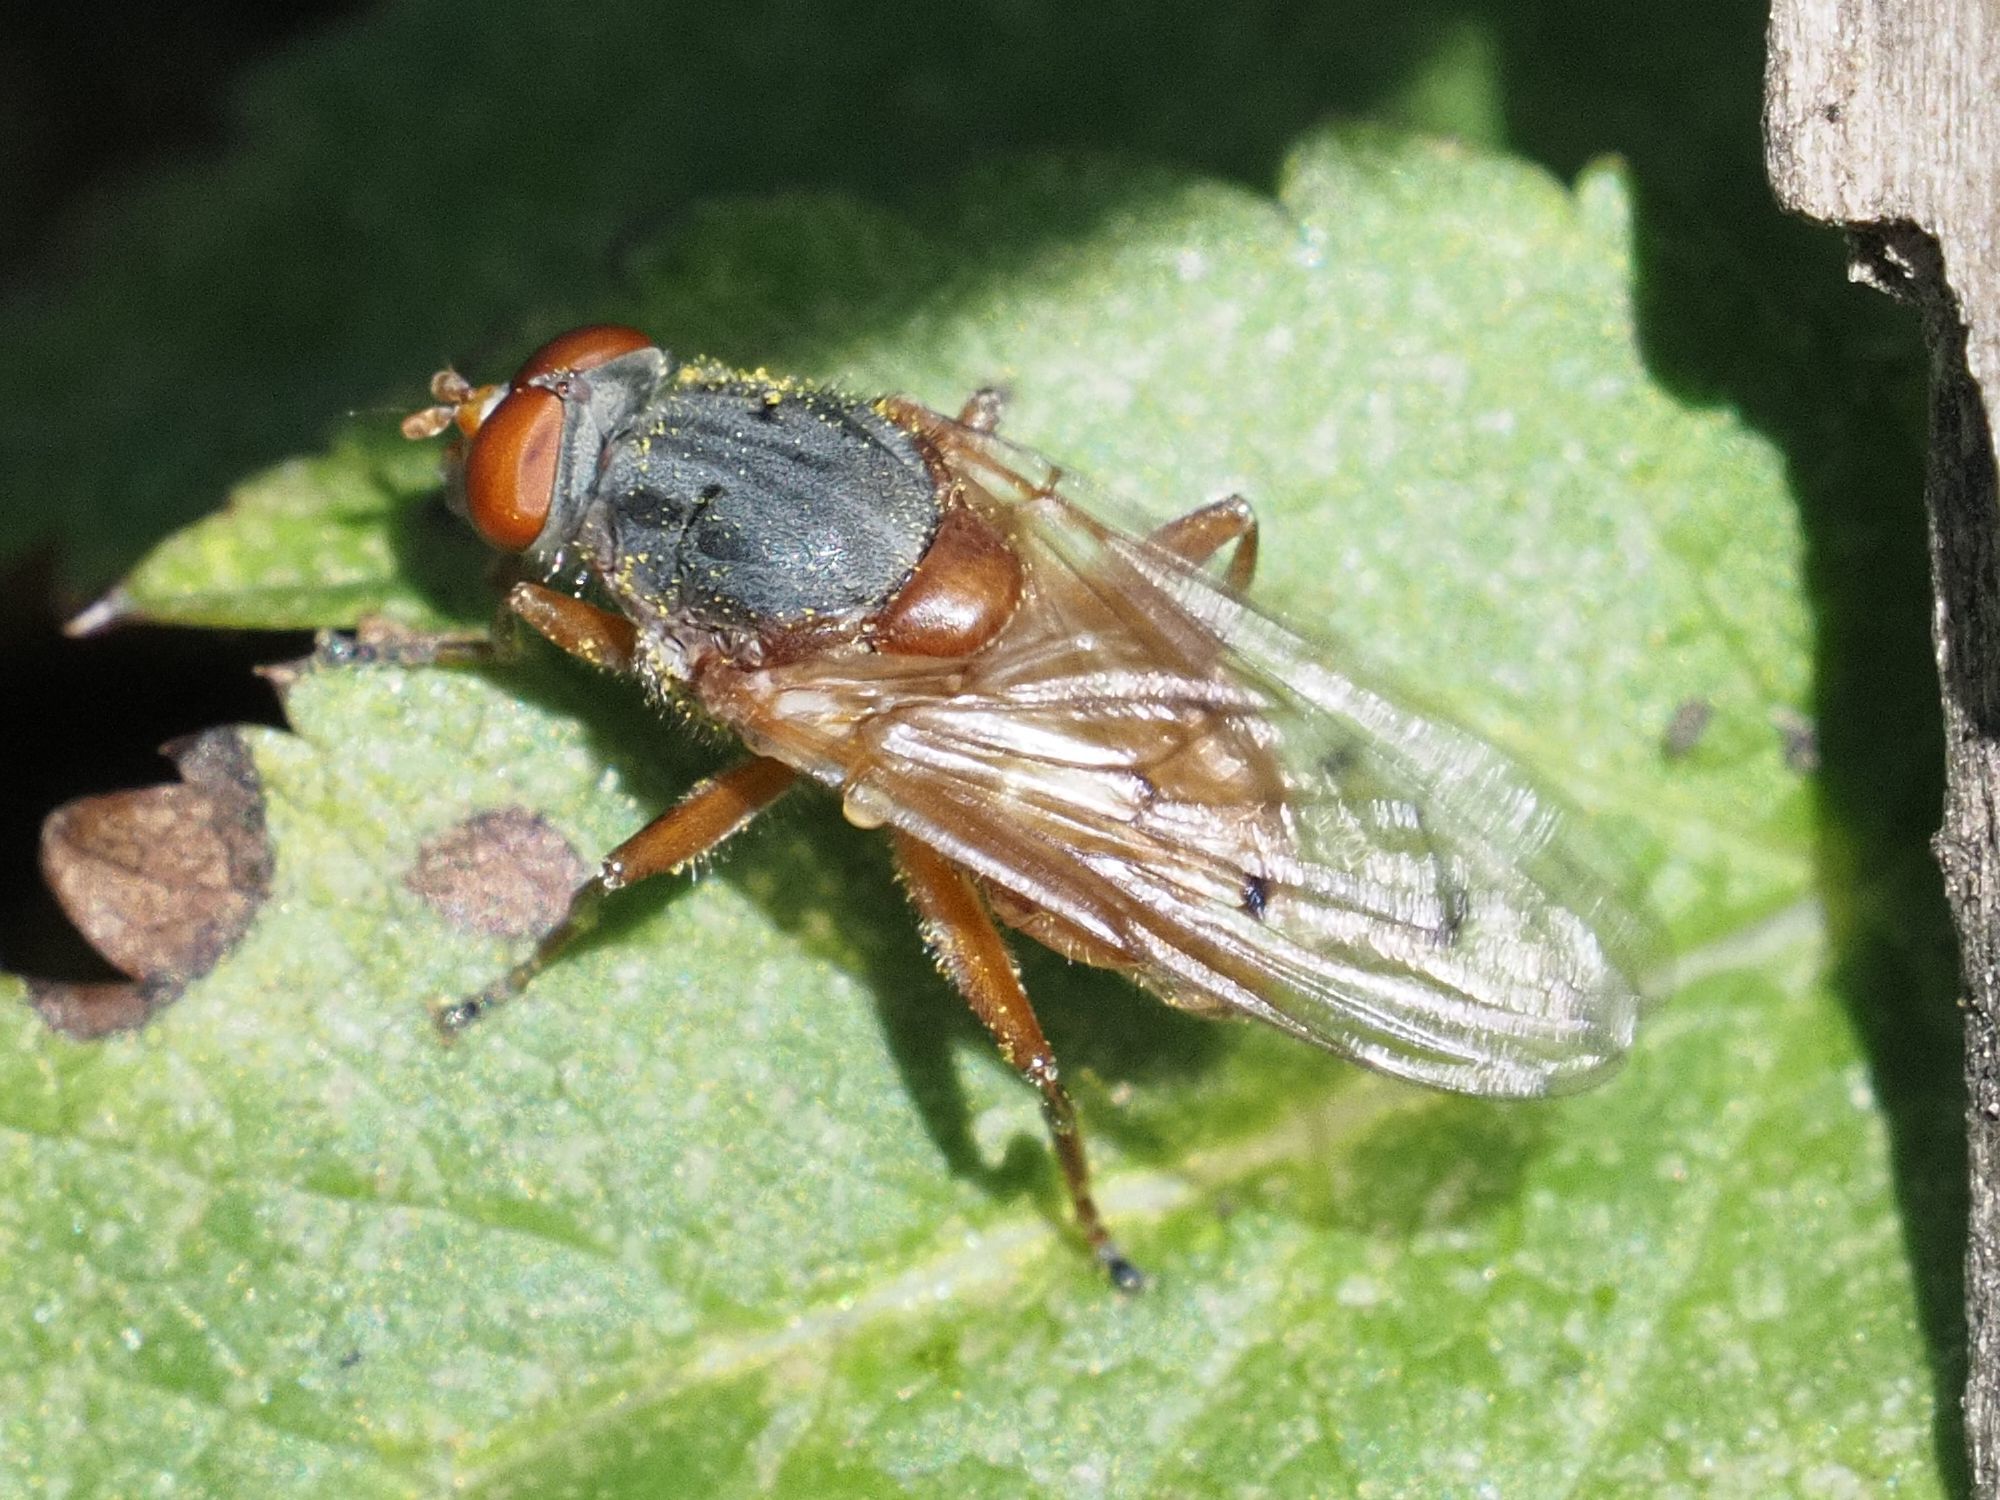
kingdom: Animalia
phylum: Arthropoda
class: Insecta
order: Diptera
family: Syrphidae
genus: Brachyopa
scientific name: Brachyopa maculipennis
